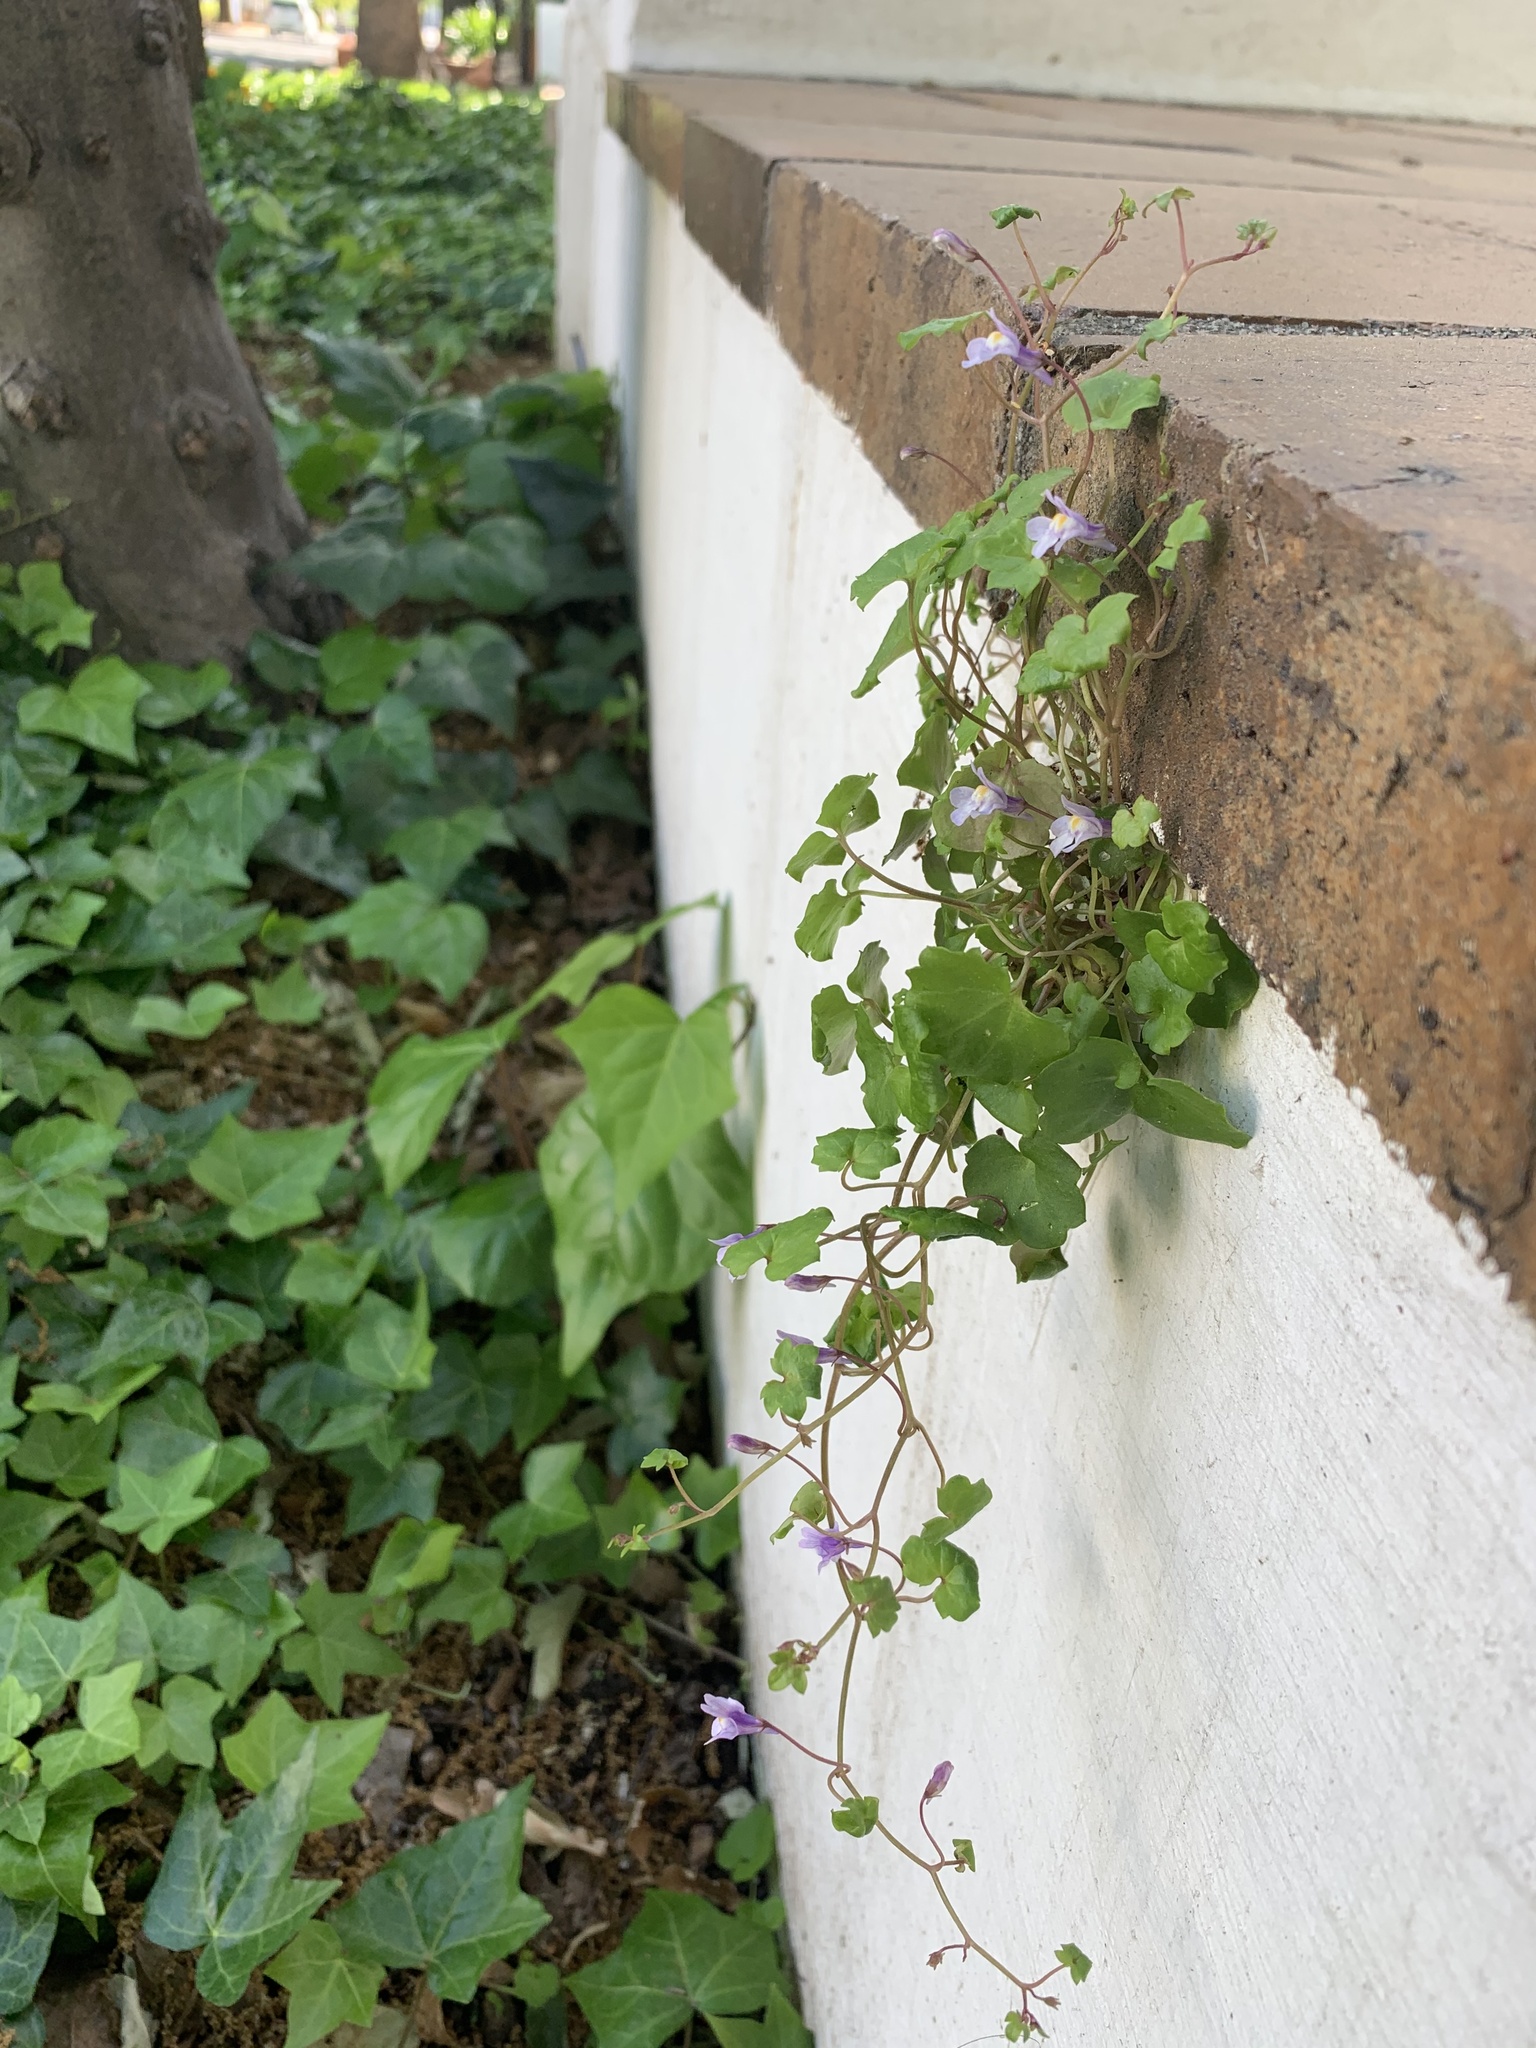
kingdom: Plantae
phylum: Tracheophyta
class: Magnoliopsida
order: Lamiales
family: Plantaginaceae
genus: Cymbalaria
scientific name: Cymbalaria muralis
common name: Ivy-leaved toadflax
